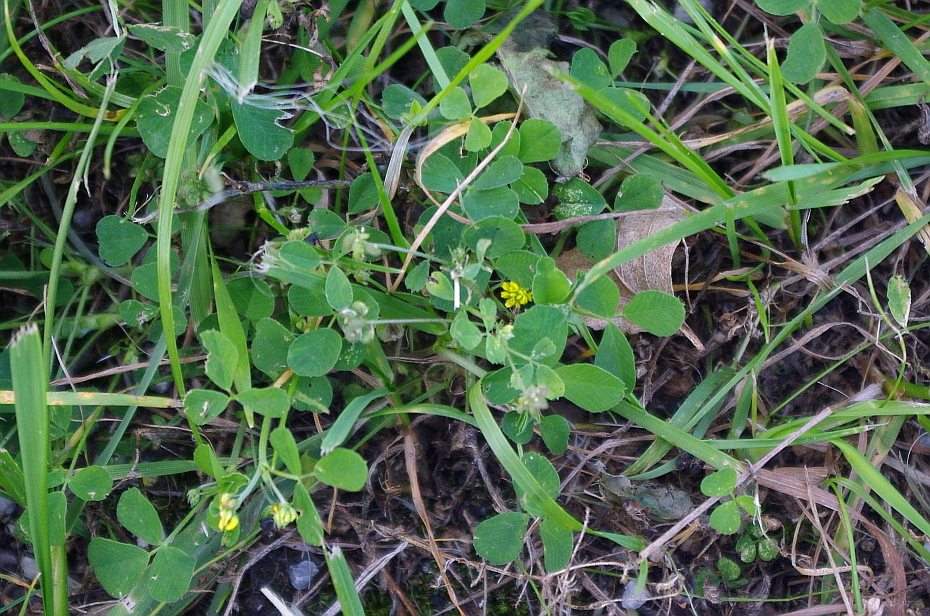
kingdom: Plantae
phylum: Tracheophyta
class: Magnoliopsida
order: Fabales
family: Fabaceae
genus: Medicago
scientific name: Medicago lupulina
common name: Black medick
